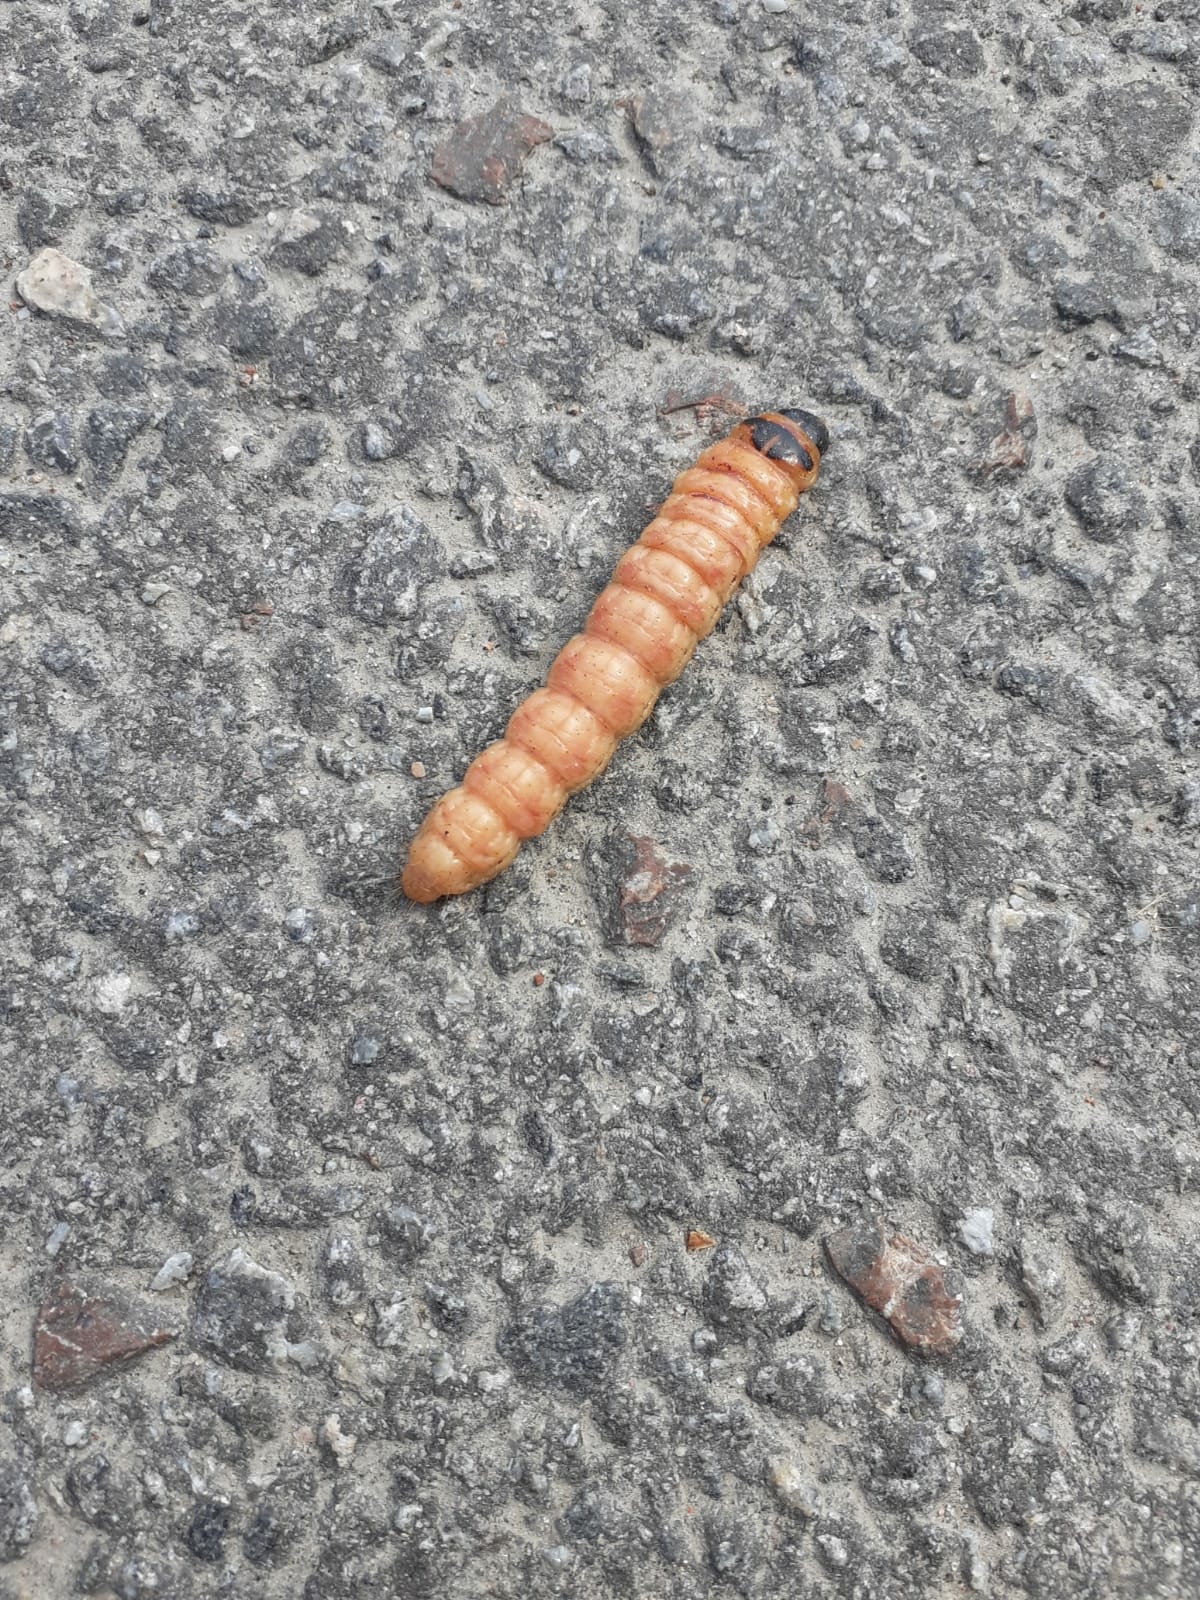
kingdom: Animalia
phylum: Arthropoda
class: Insecta
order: Lepidoptera
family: Cossidae
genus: Cossus
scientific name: Cossus cossus
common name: Goat moth
